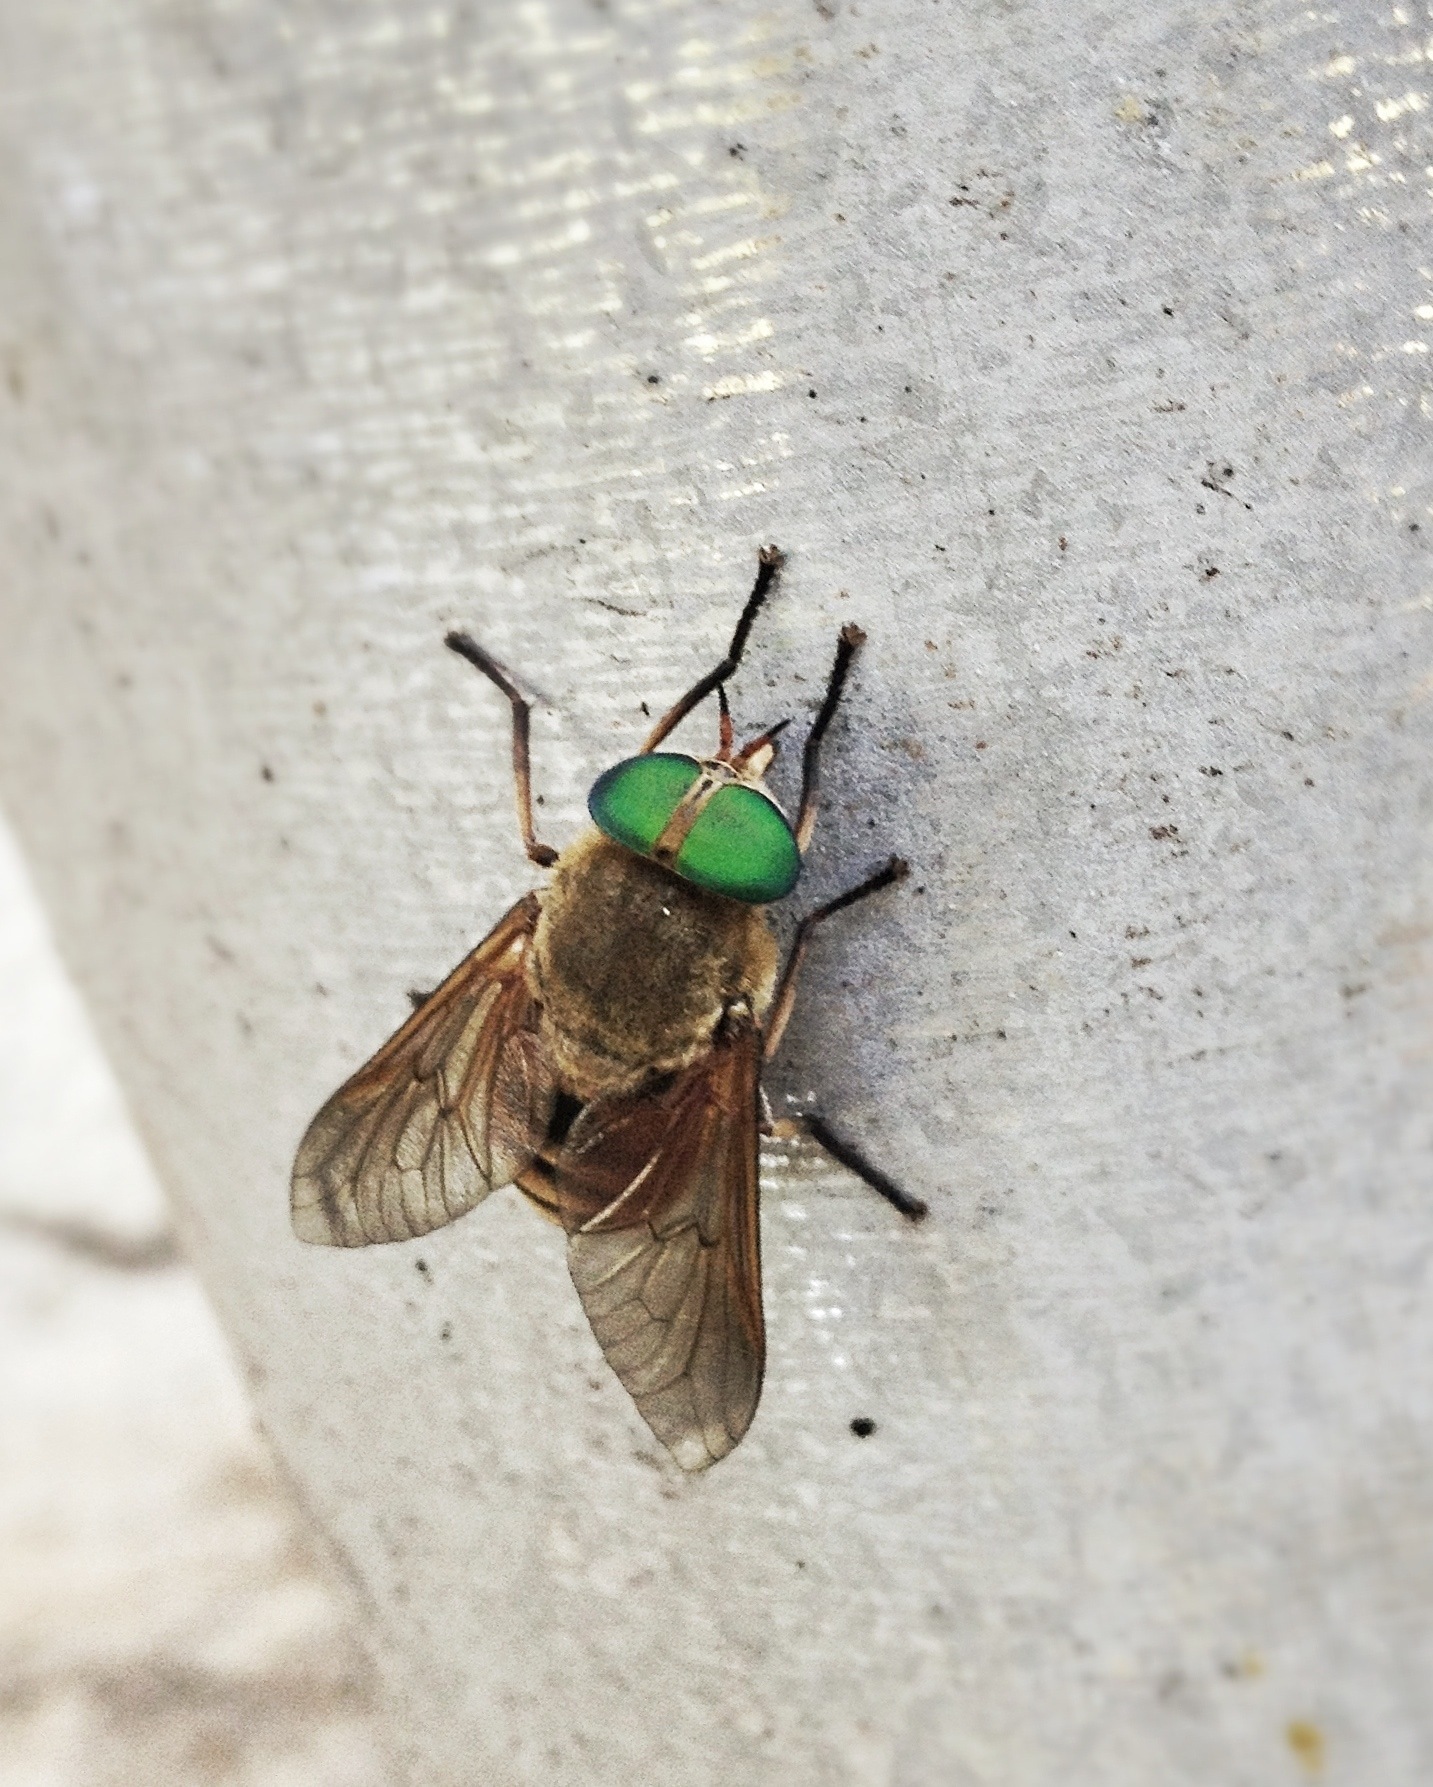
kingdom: Animalia
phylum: Arthropoda
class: Insecta
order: Diptera
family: Tabanidae
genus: Philipomyia
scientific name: Philipomyia aprica
